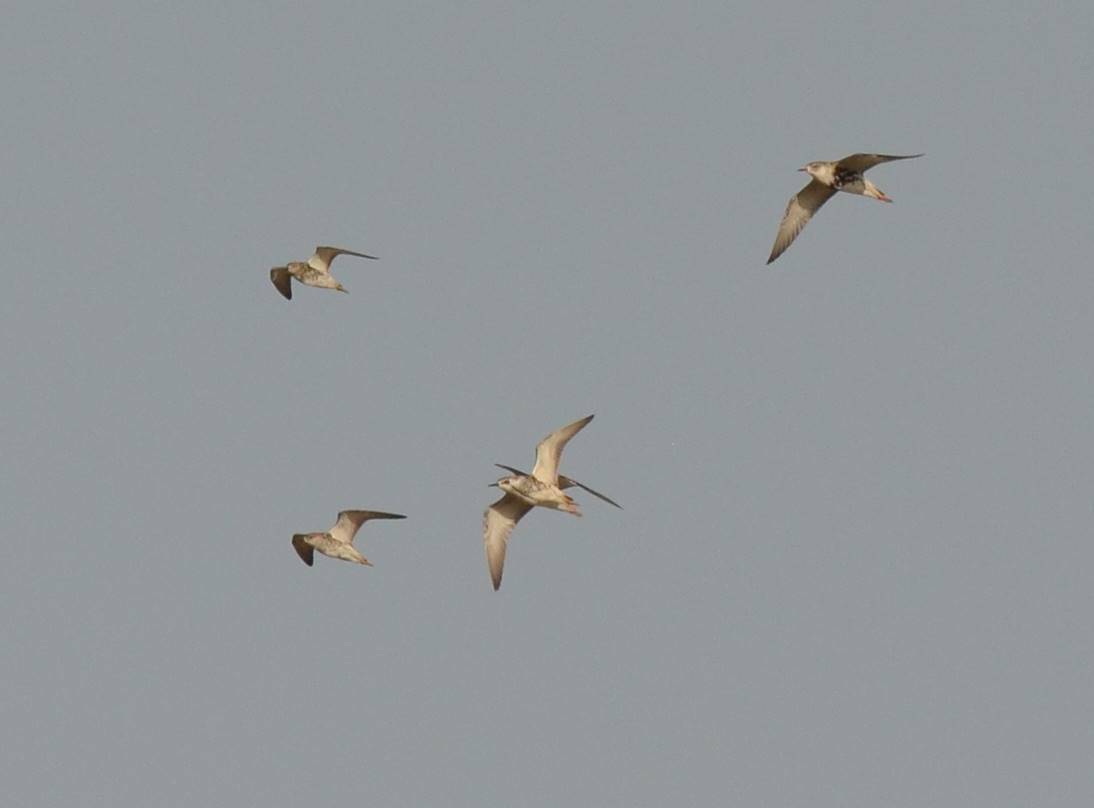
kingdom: Animalia
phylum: Chordata
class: Aves
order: Charadriiformes
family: Scolopacidae
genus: Calidris
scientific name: Calidris pugnax
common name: Ruff
